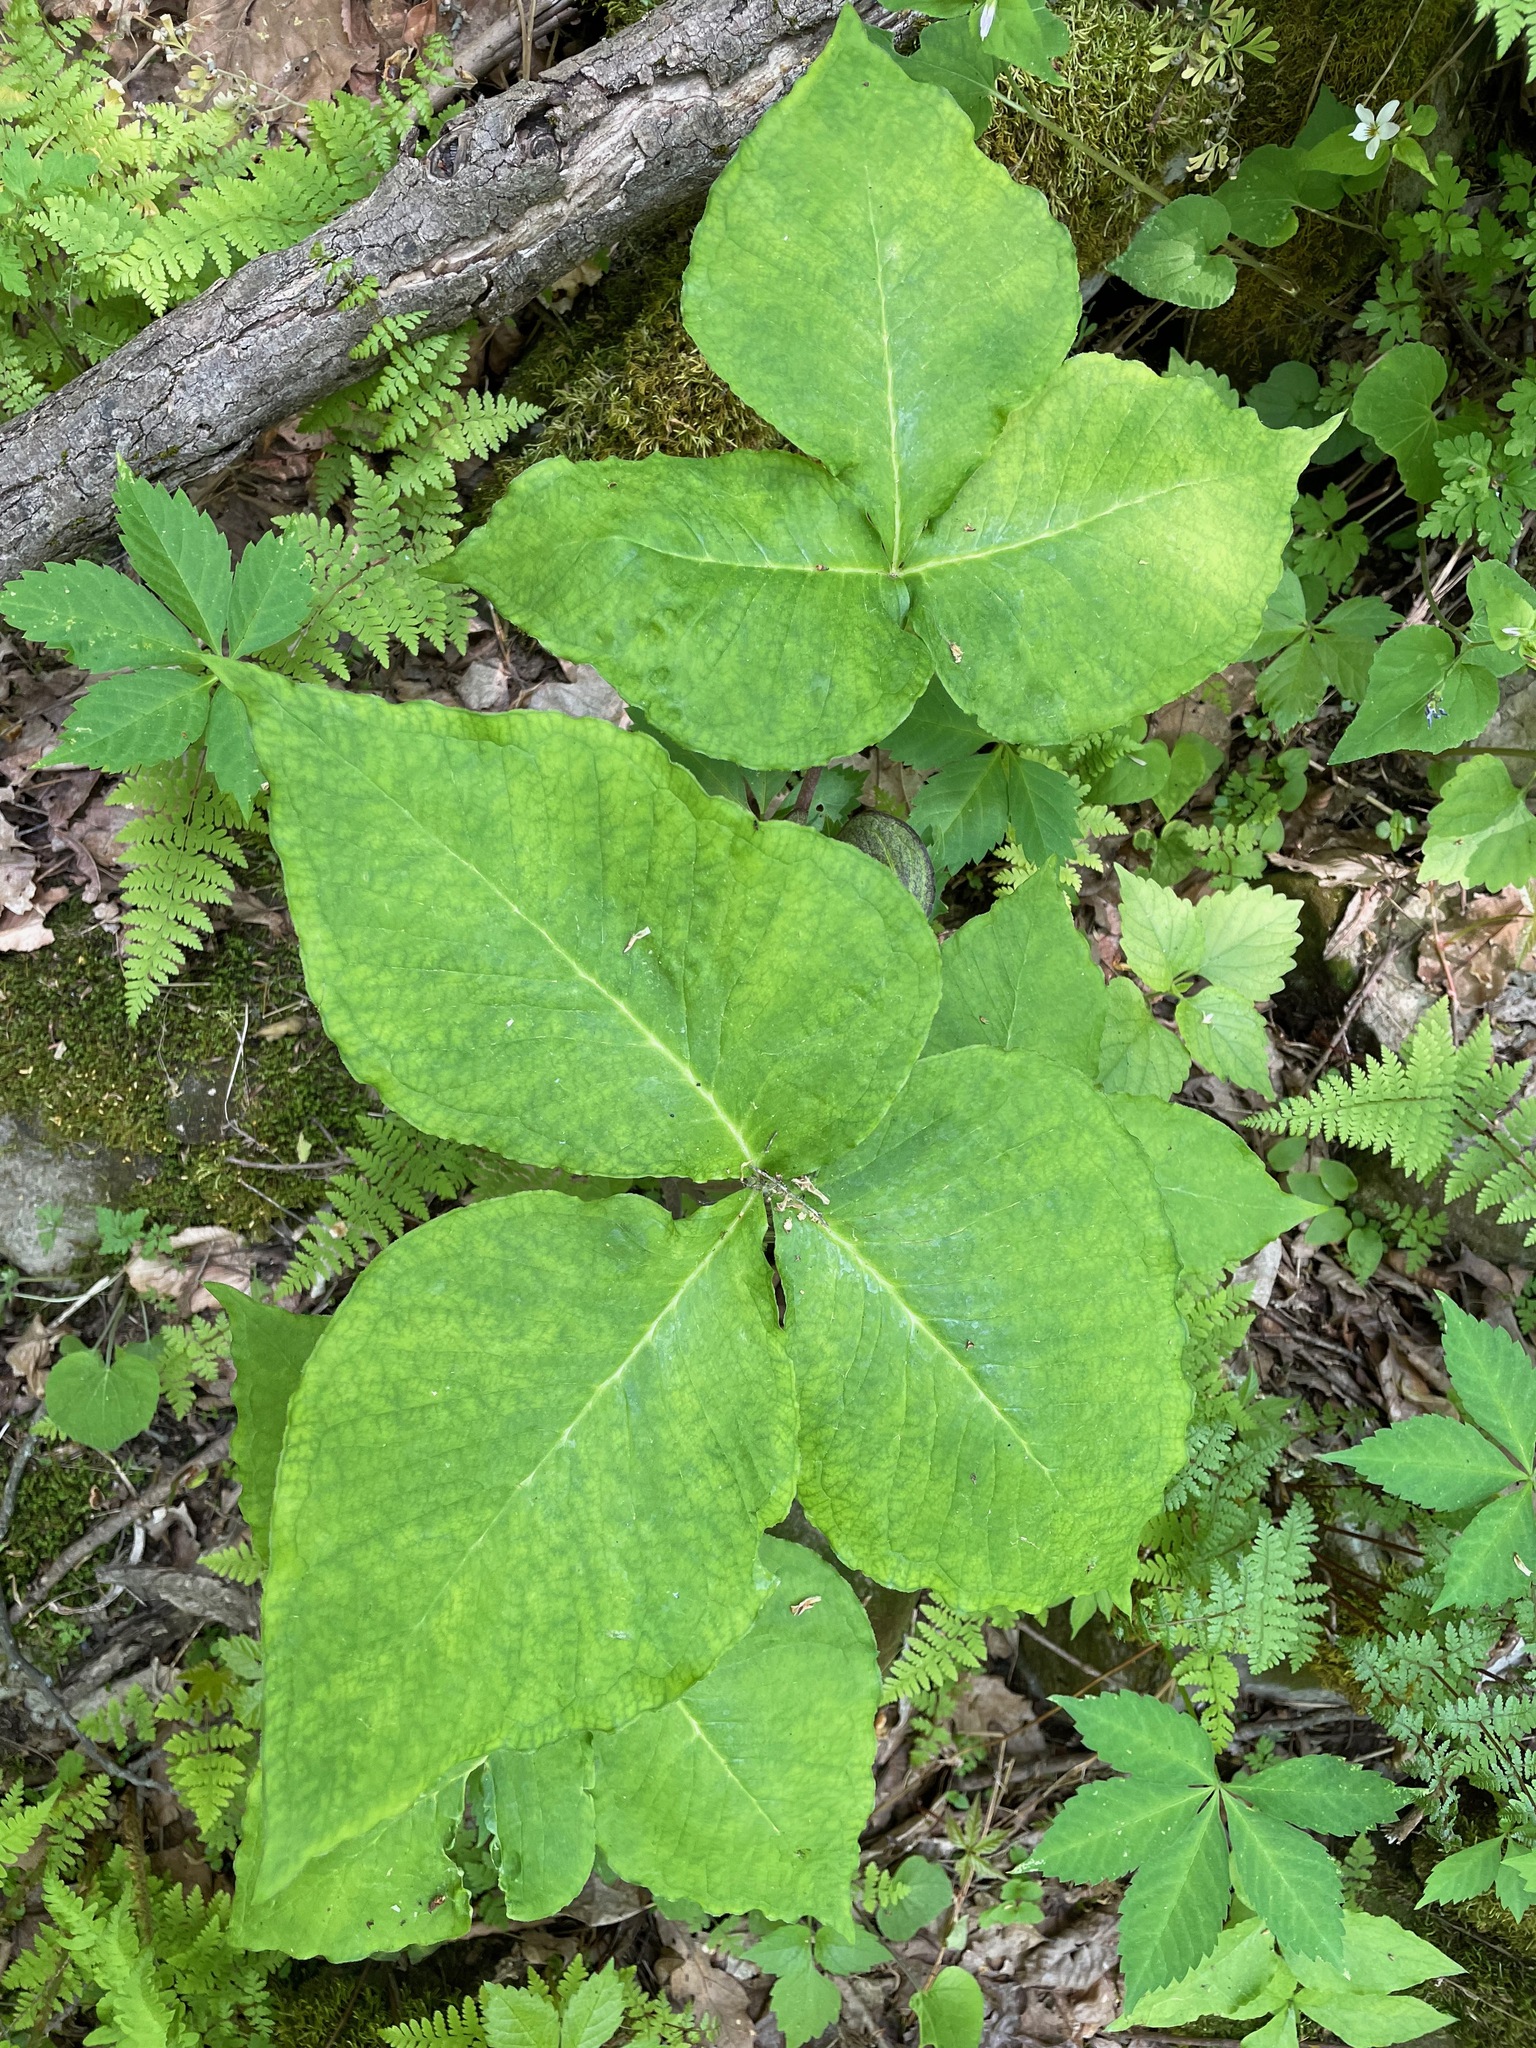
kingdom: Plantae
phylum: Tracheophyta
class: Liliopsida
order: Alismatales
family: Araceae
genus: Arisaema
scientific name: Arisaema triphyllum
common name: Jack-in-the-pulpit
